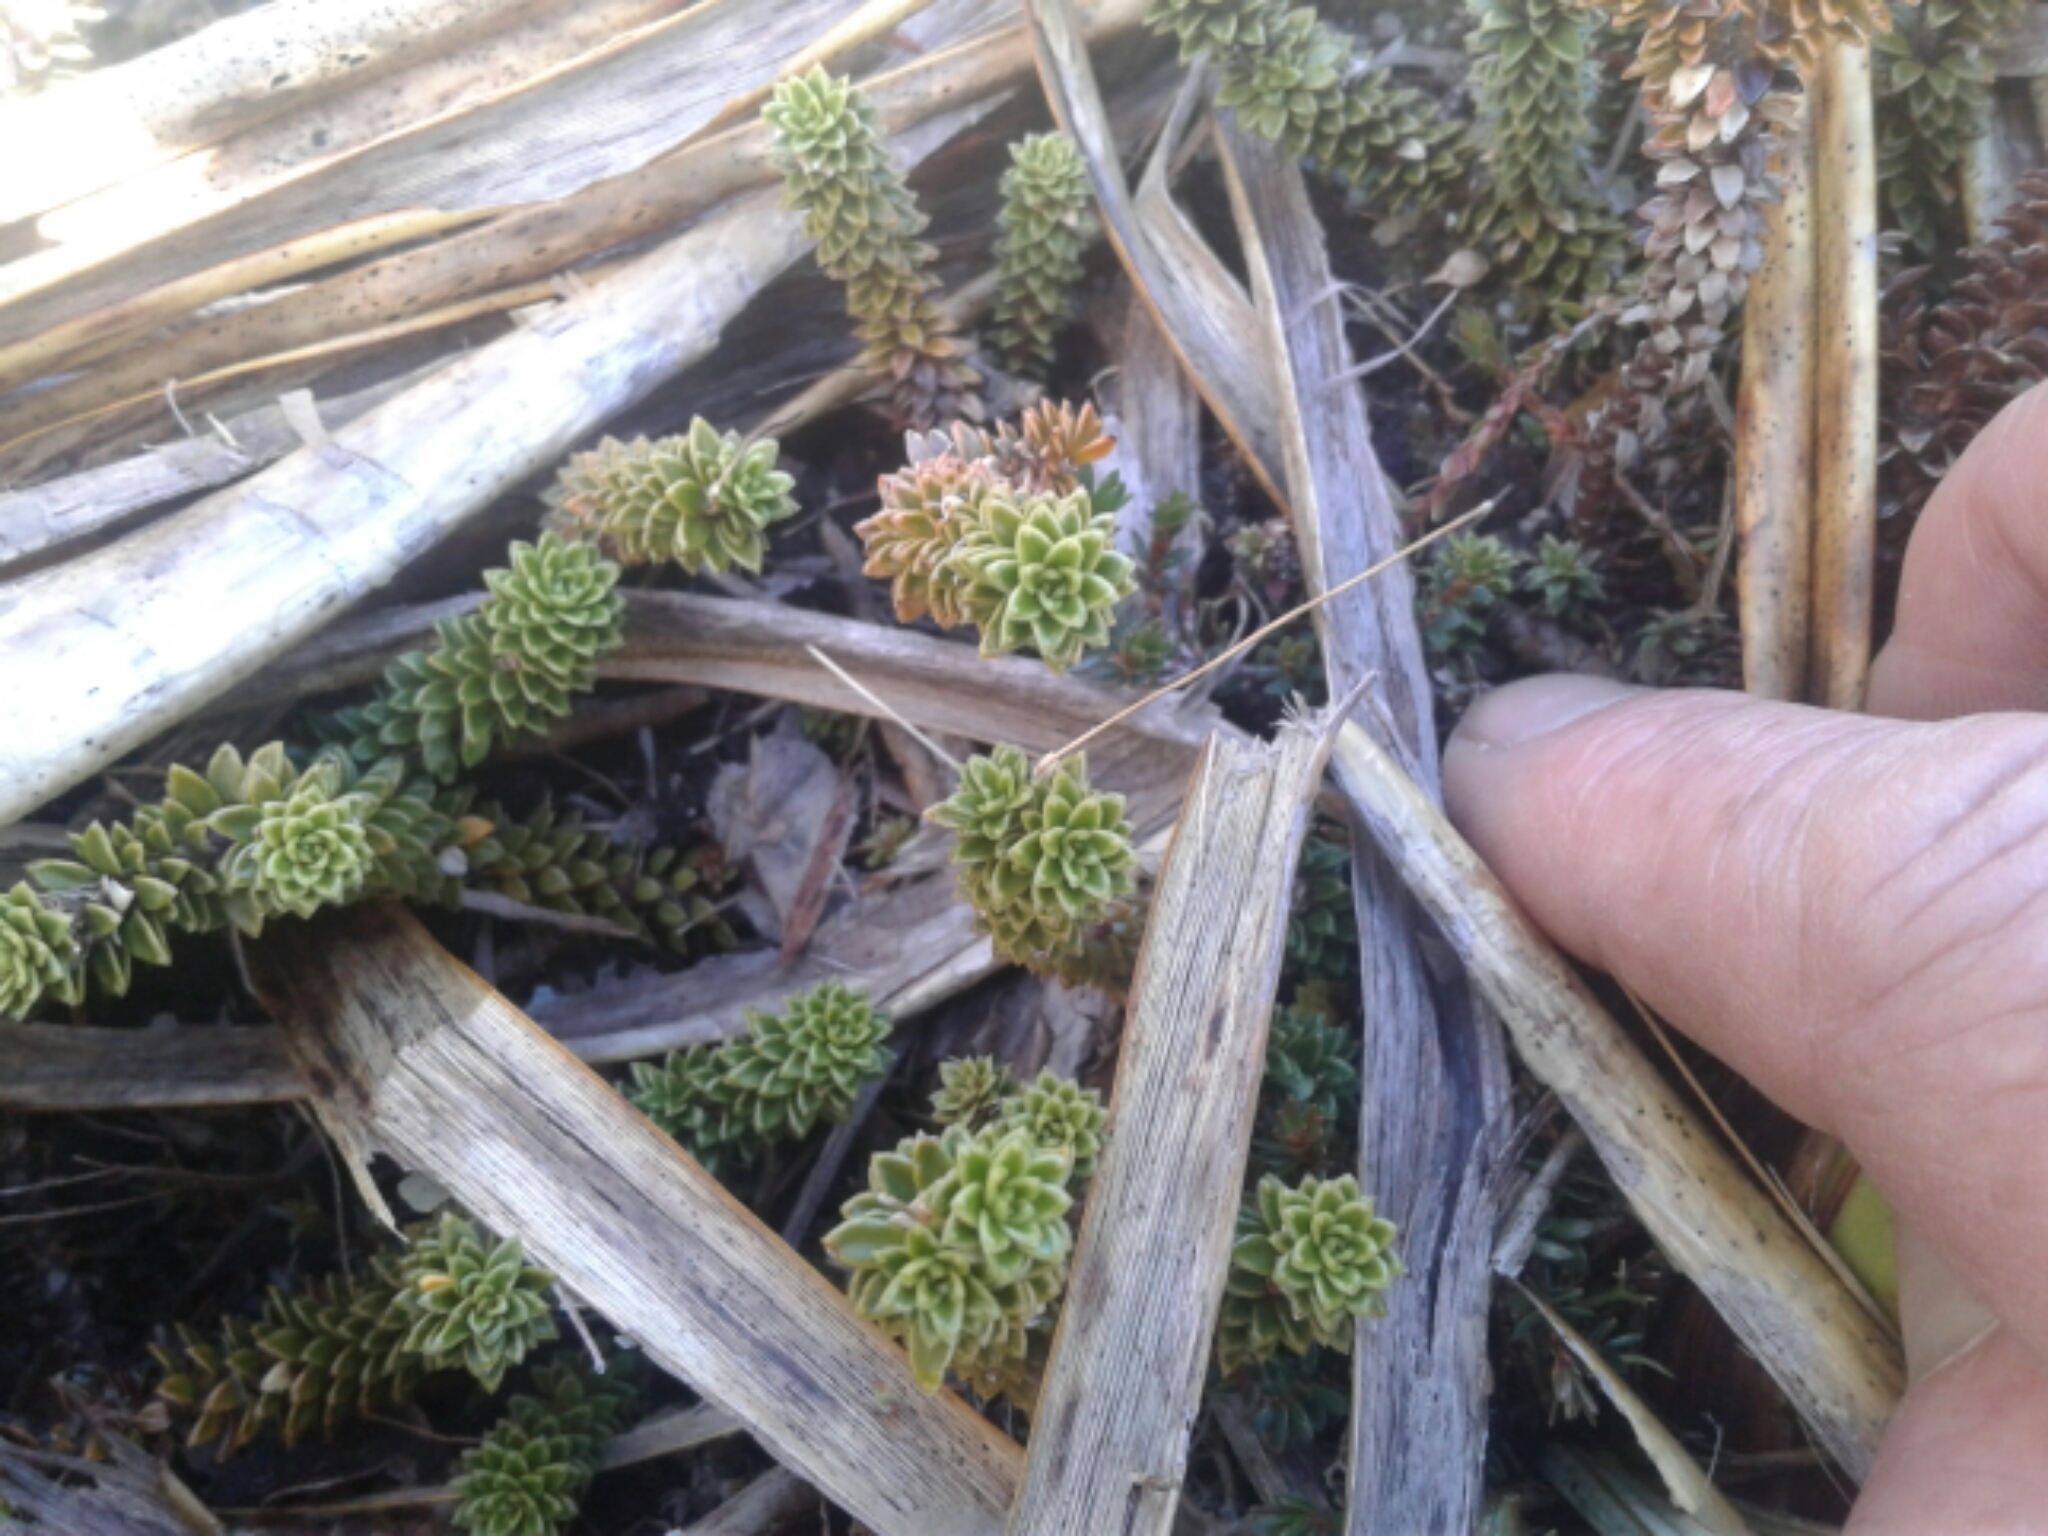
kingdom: Plantae
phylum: Tracheophyta
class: Magnoliopsida
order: Asterales
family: Stylidiaceae
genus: Forstera
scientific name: Forstera mackayi
